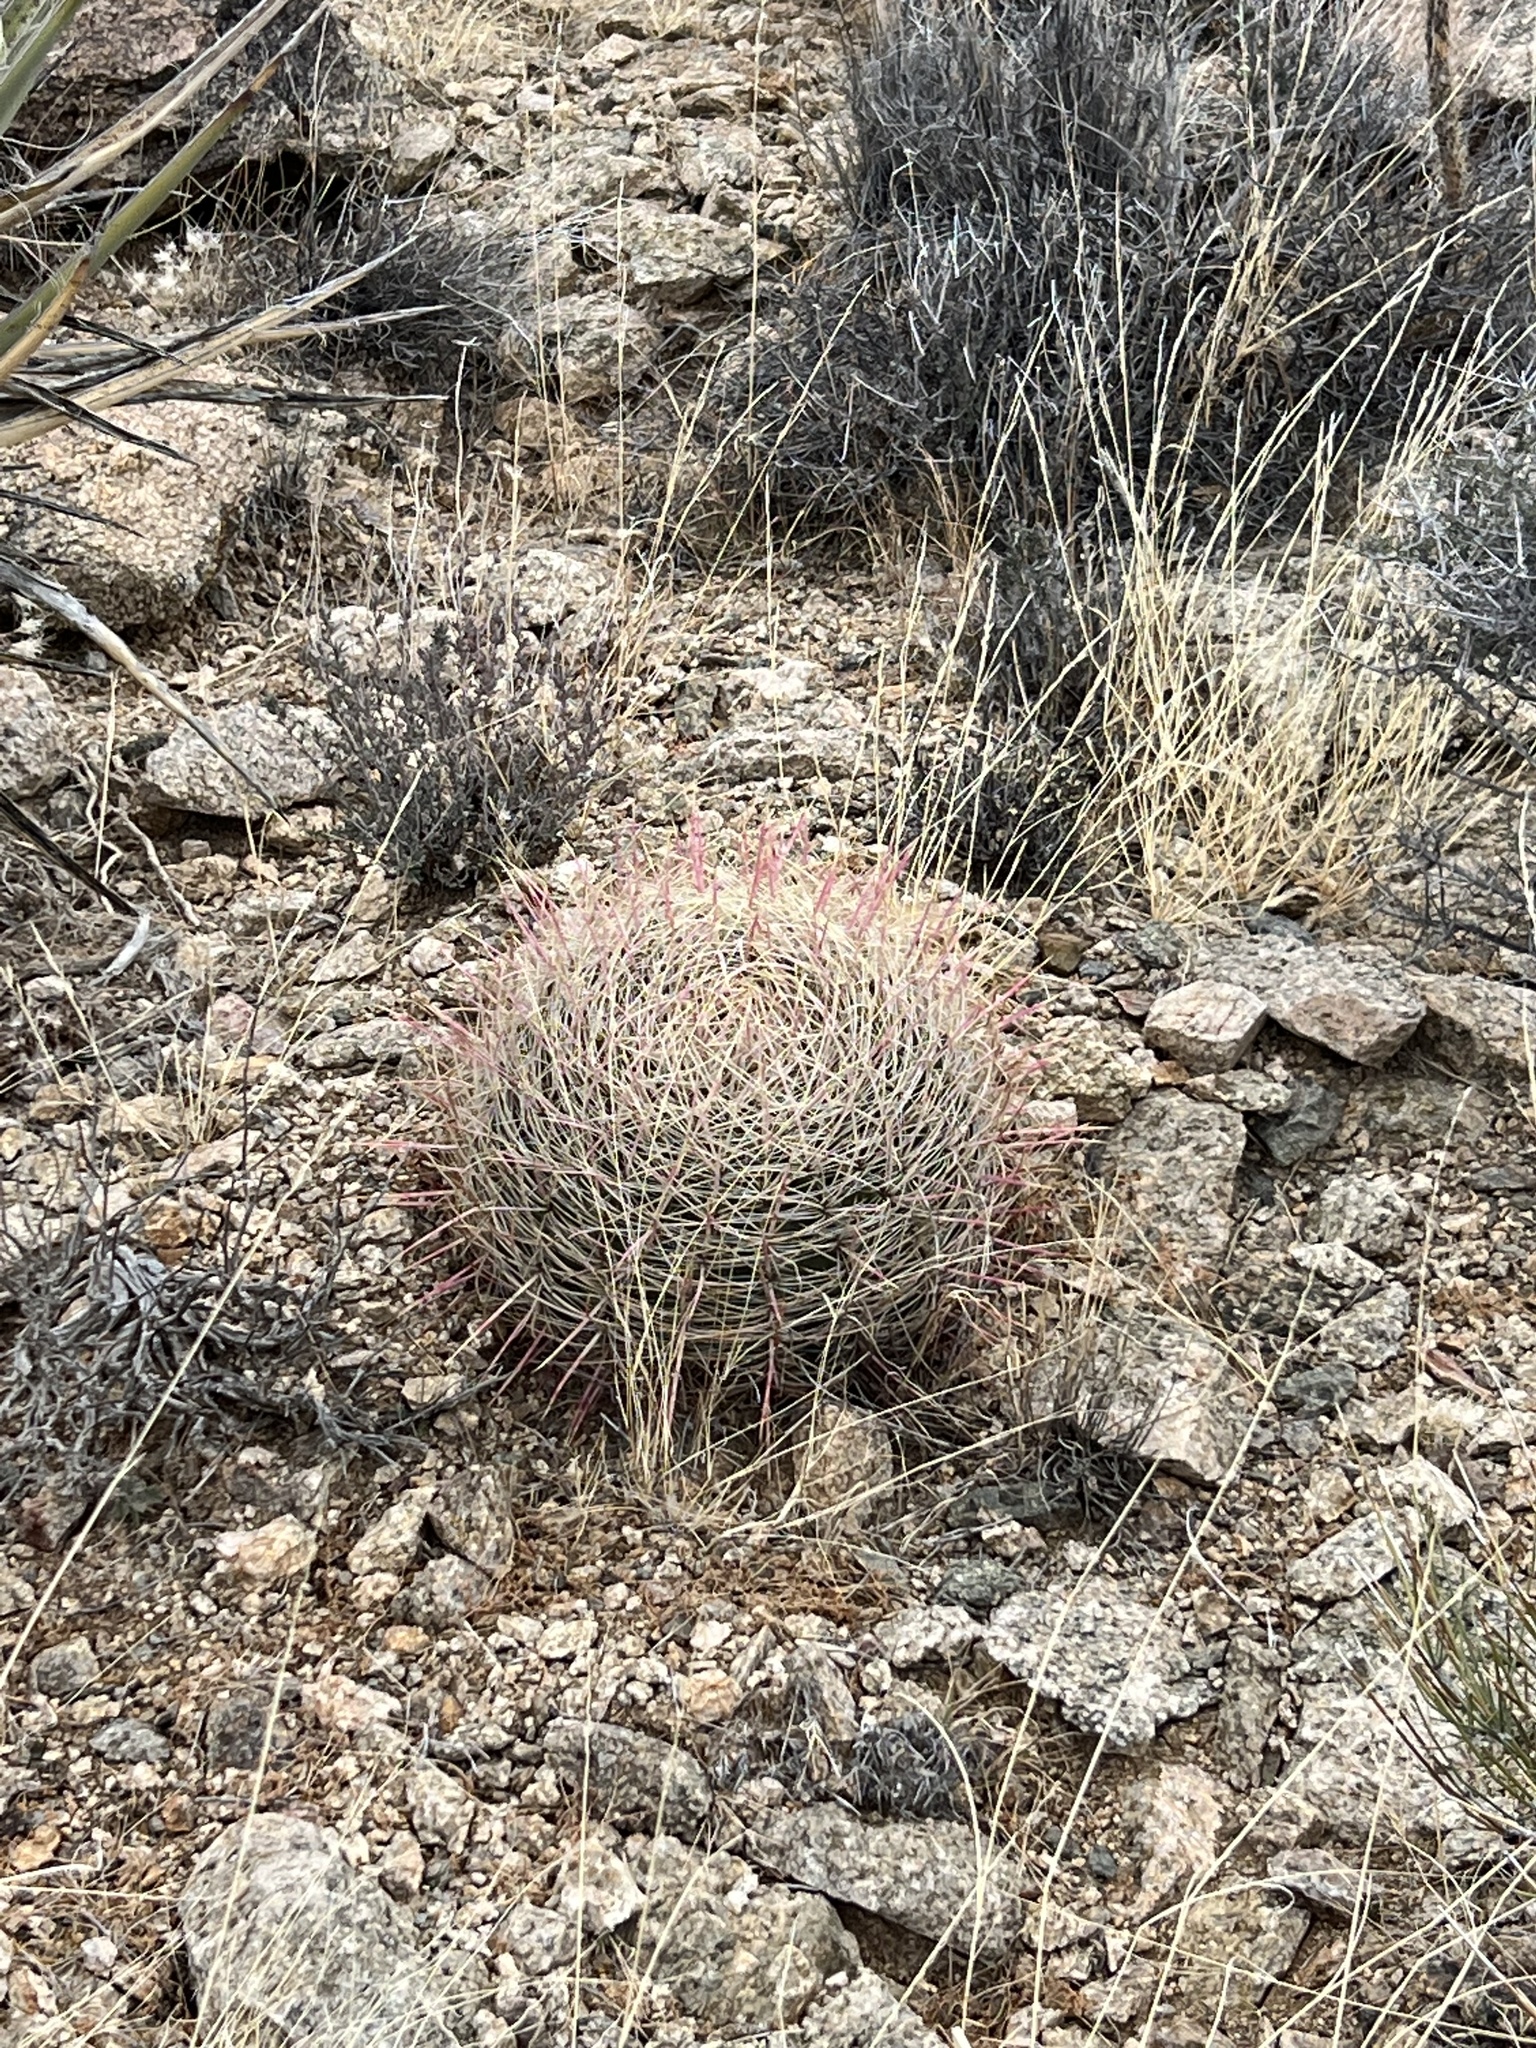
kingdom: Plantae
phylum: Tracheophyta
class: Magnoliopsida
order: Caryophyllales
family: Cactaceae
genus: Ferocactus
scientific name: Ferocactus cylindraceus
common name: California barrel cactus
